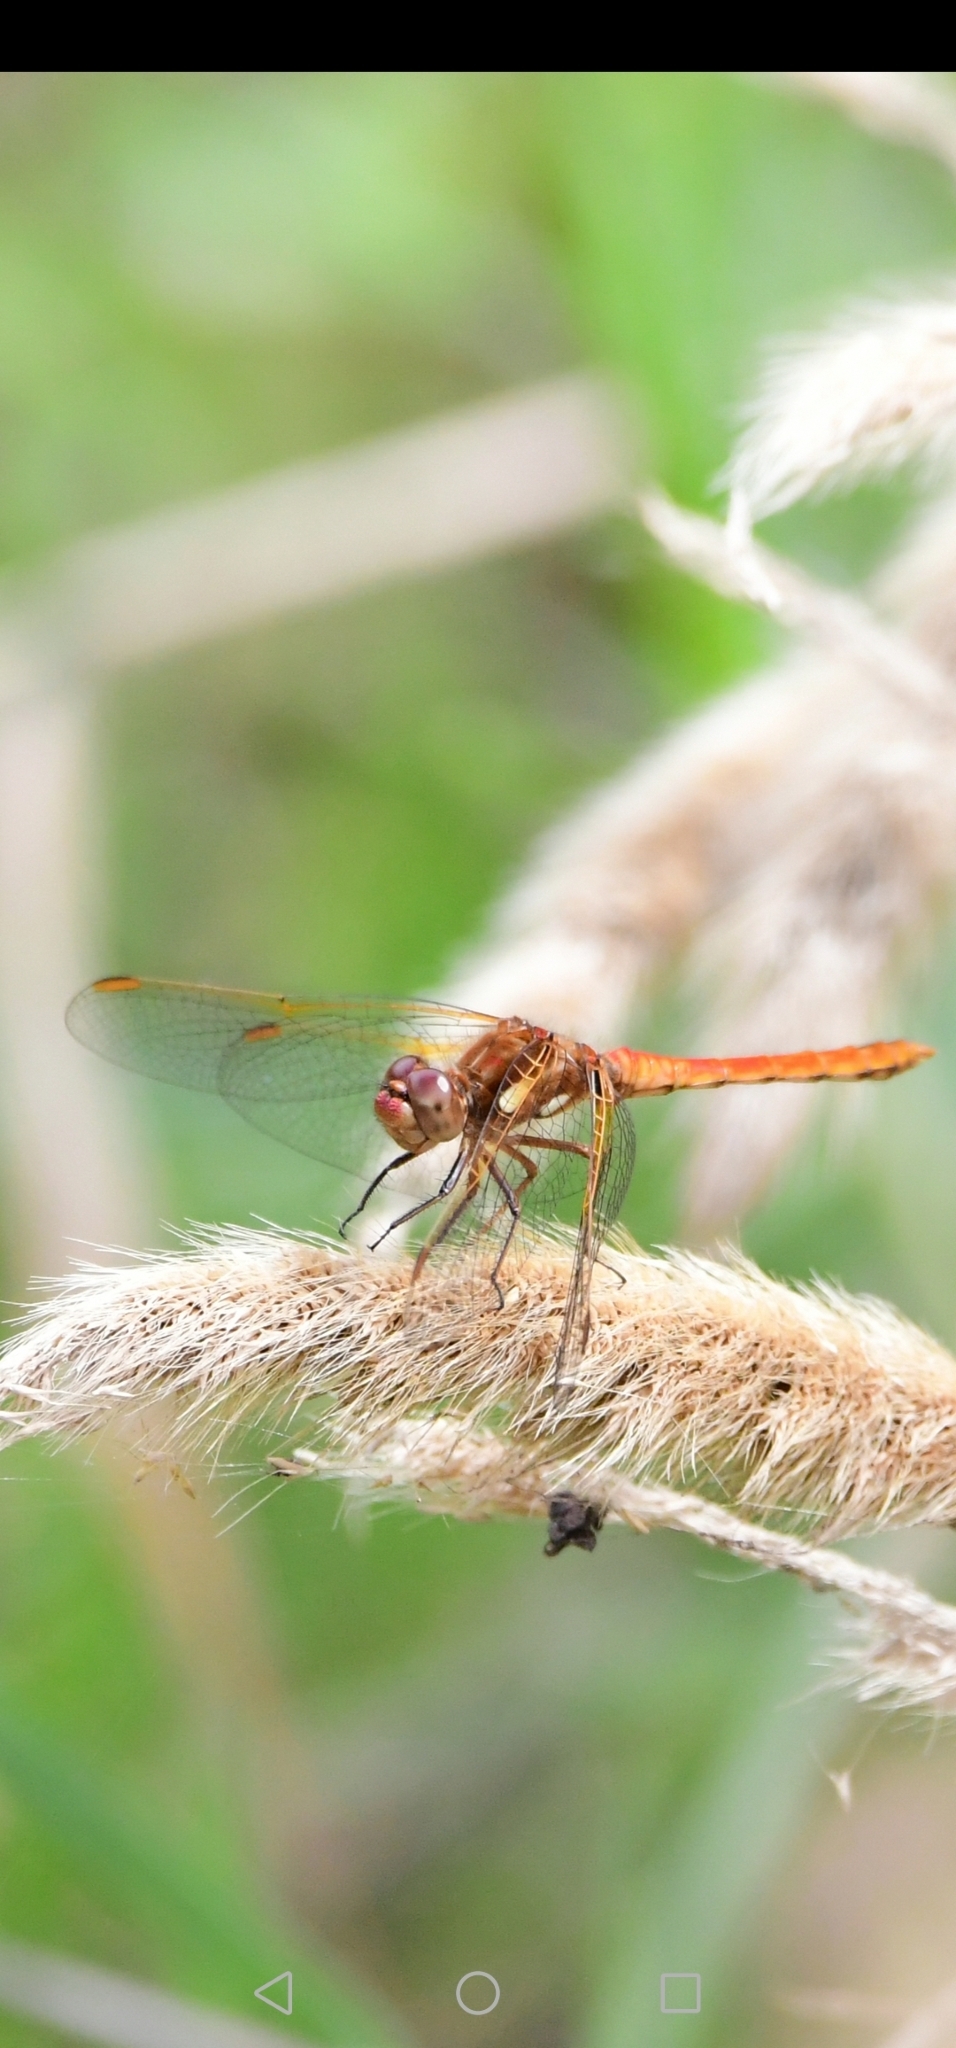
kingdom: Animalia
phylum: Arthropoda
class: Insecta
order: Odonata
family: Libellulidae
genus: Sympetrum
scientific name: Sympetrum gilvum
